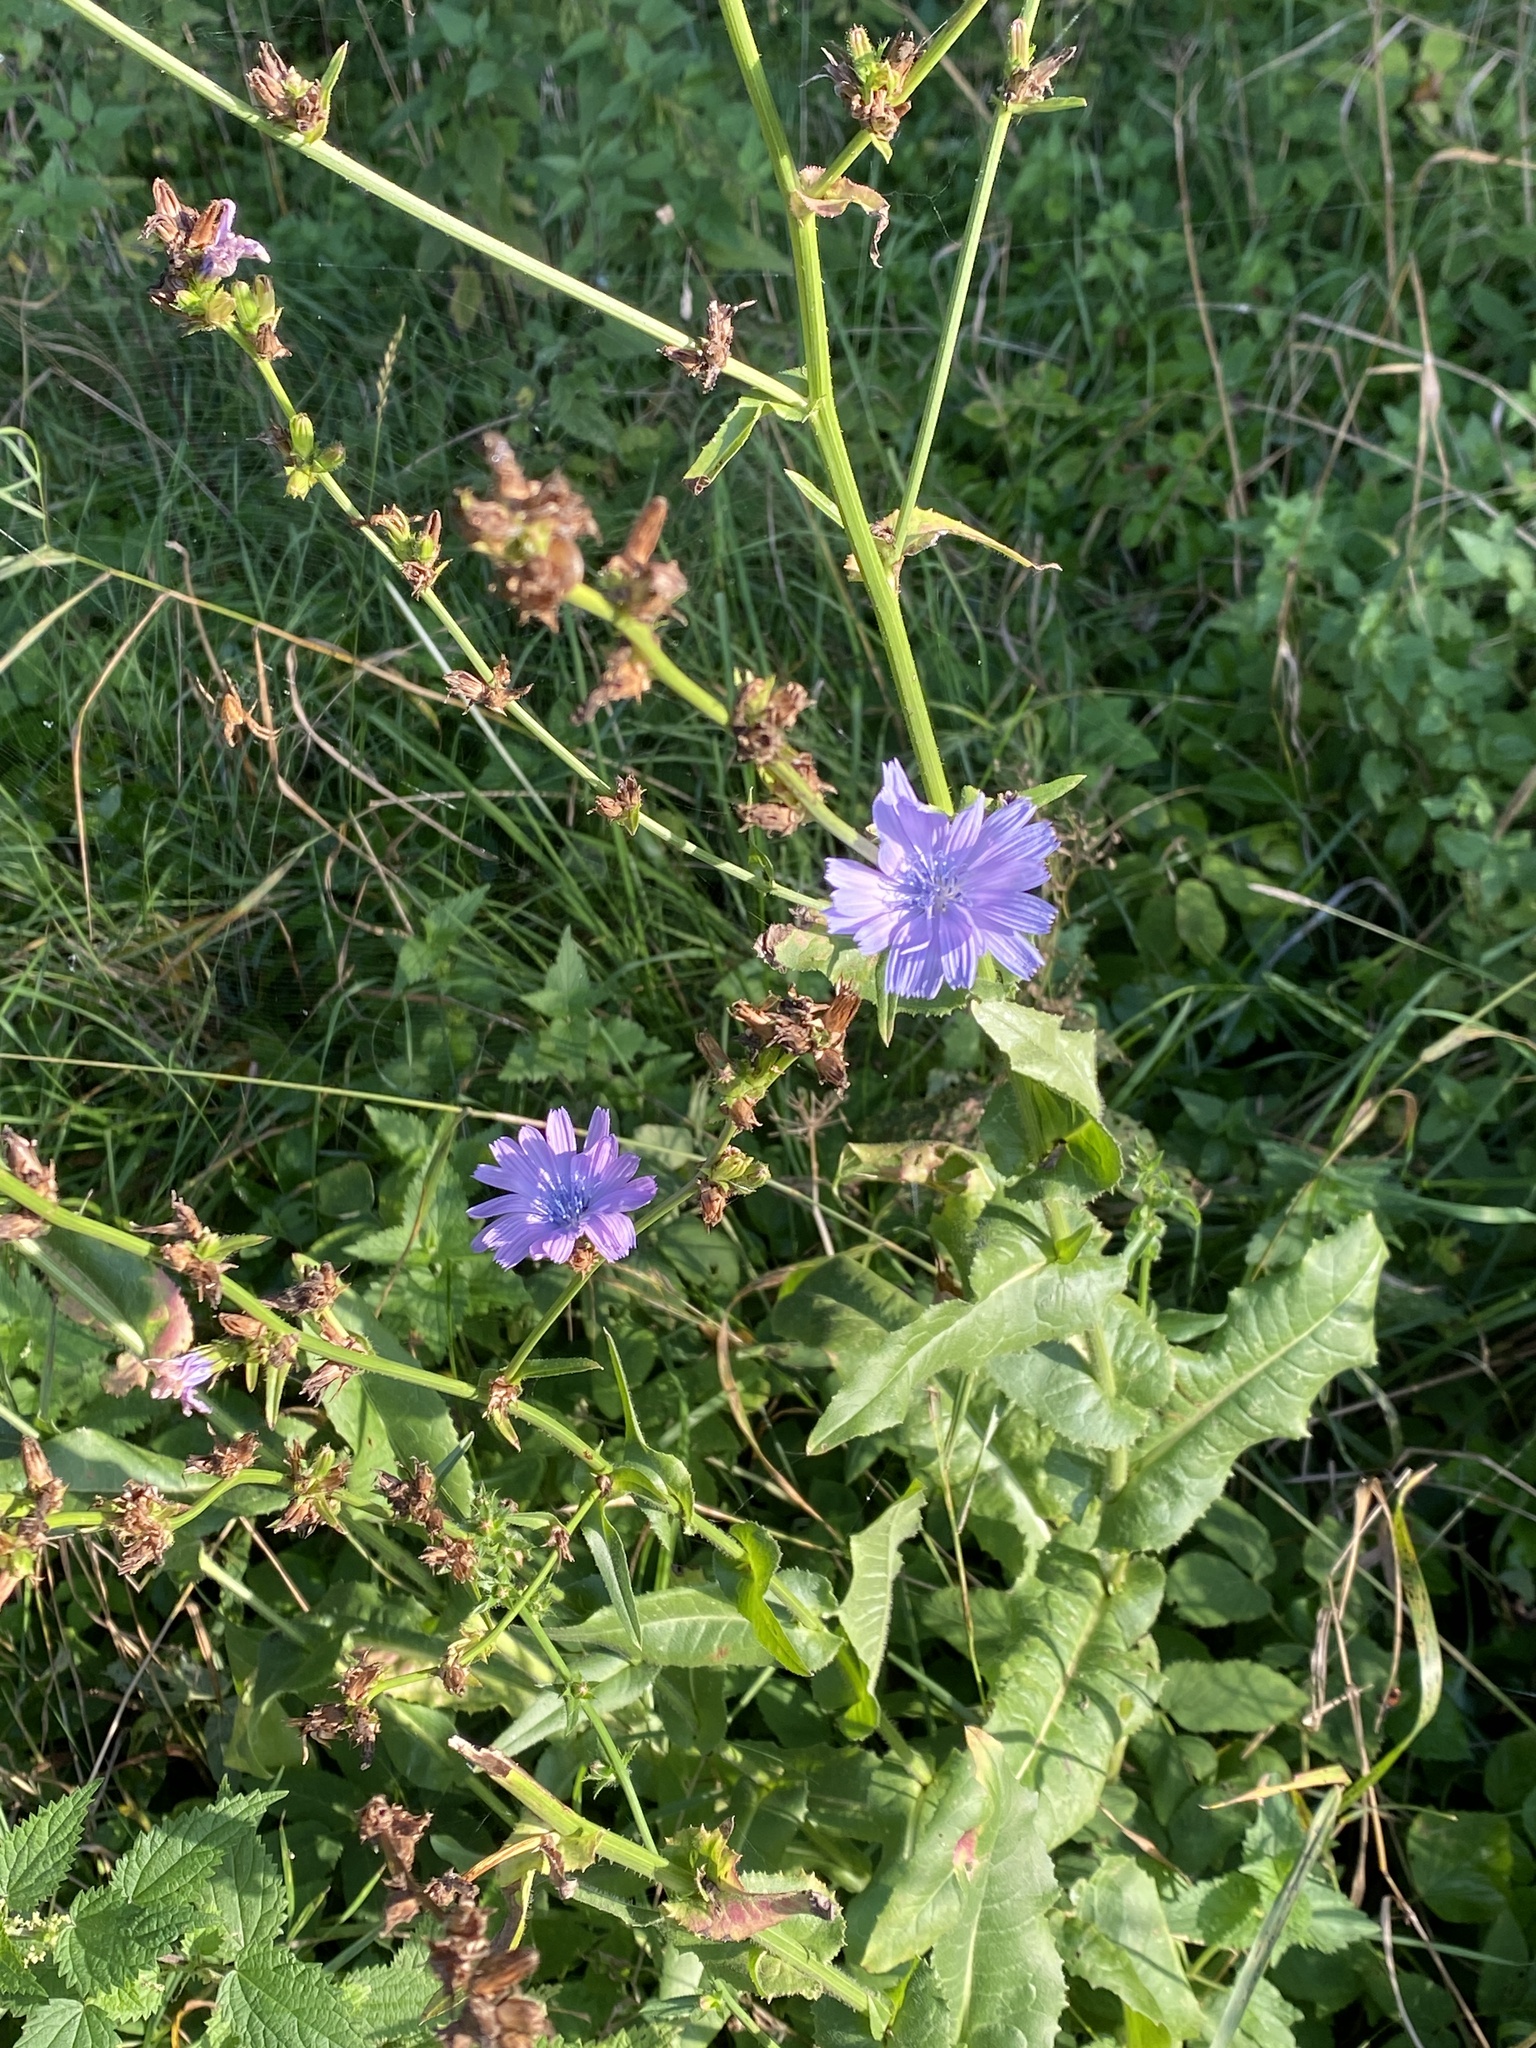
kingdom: Plantae
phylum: Tracheophyta
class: Magnoliopsida
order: Asterales
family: Asteraceae
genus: Cichorium
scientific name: Cichorium intybus
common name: Chicory
